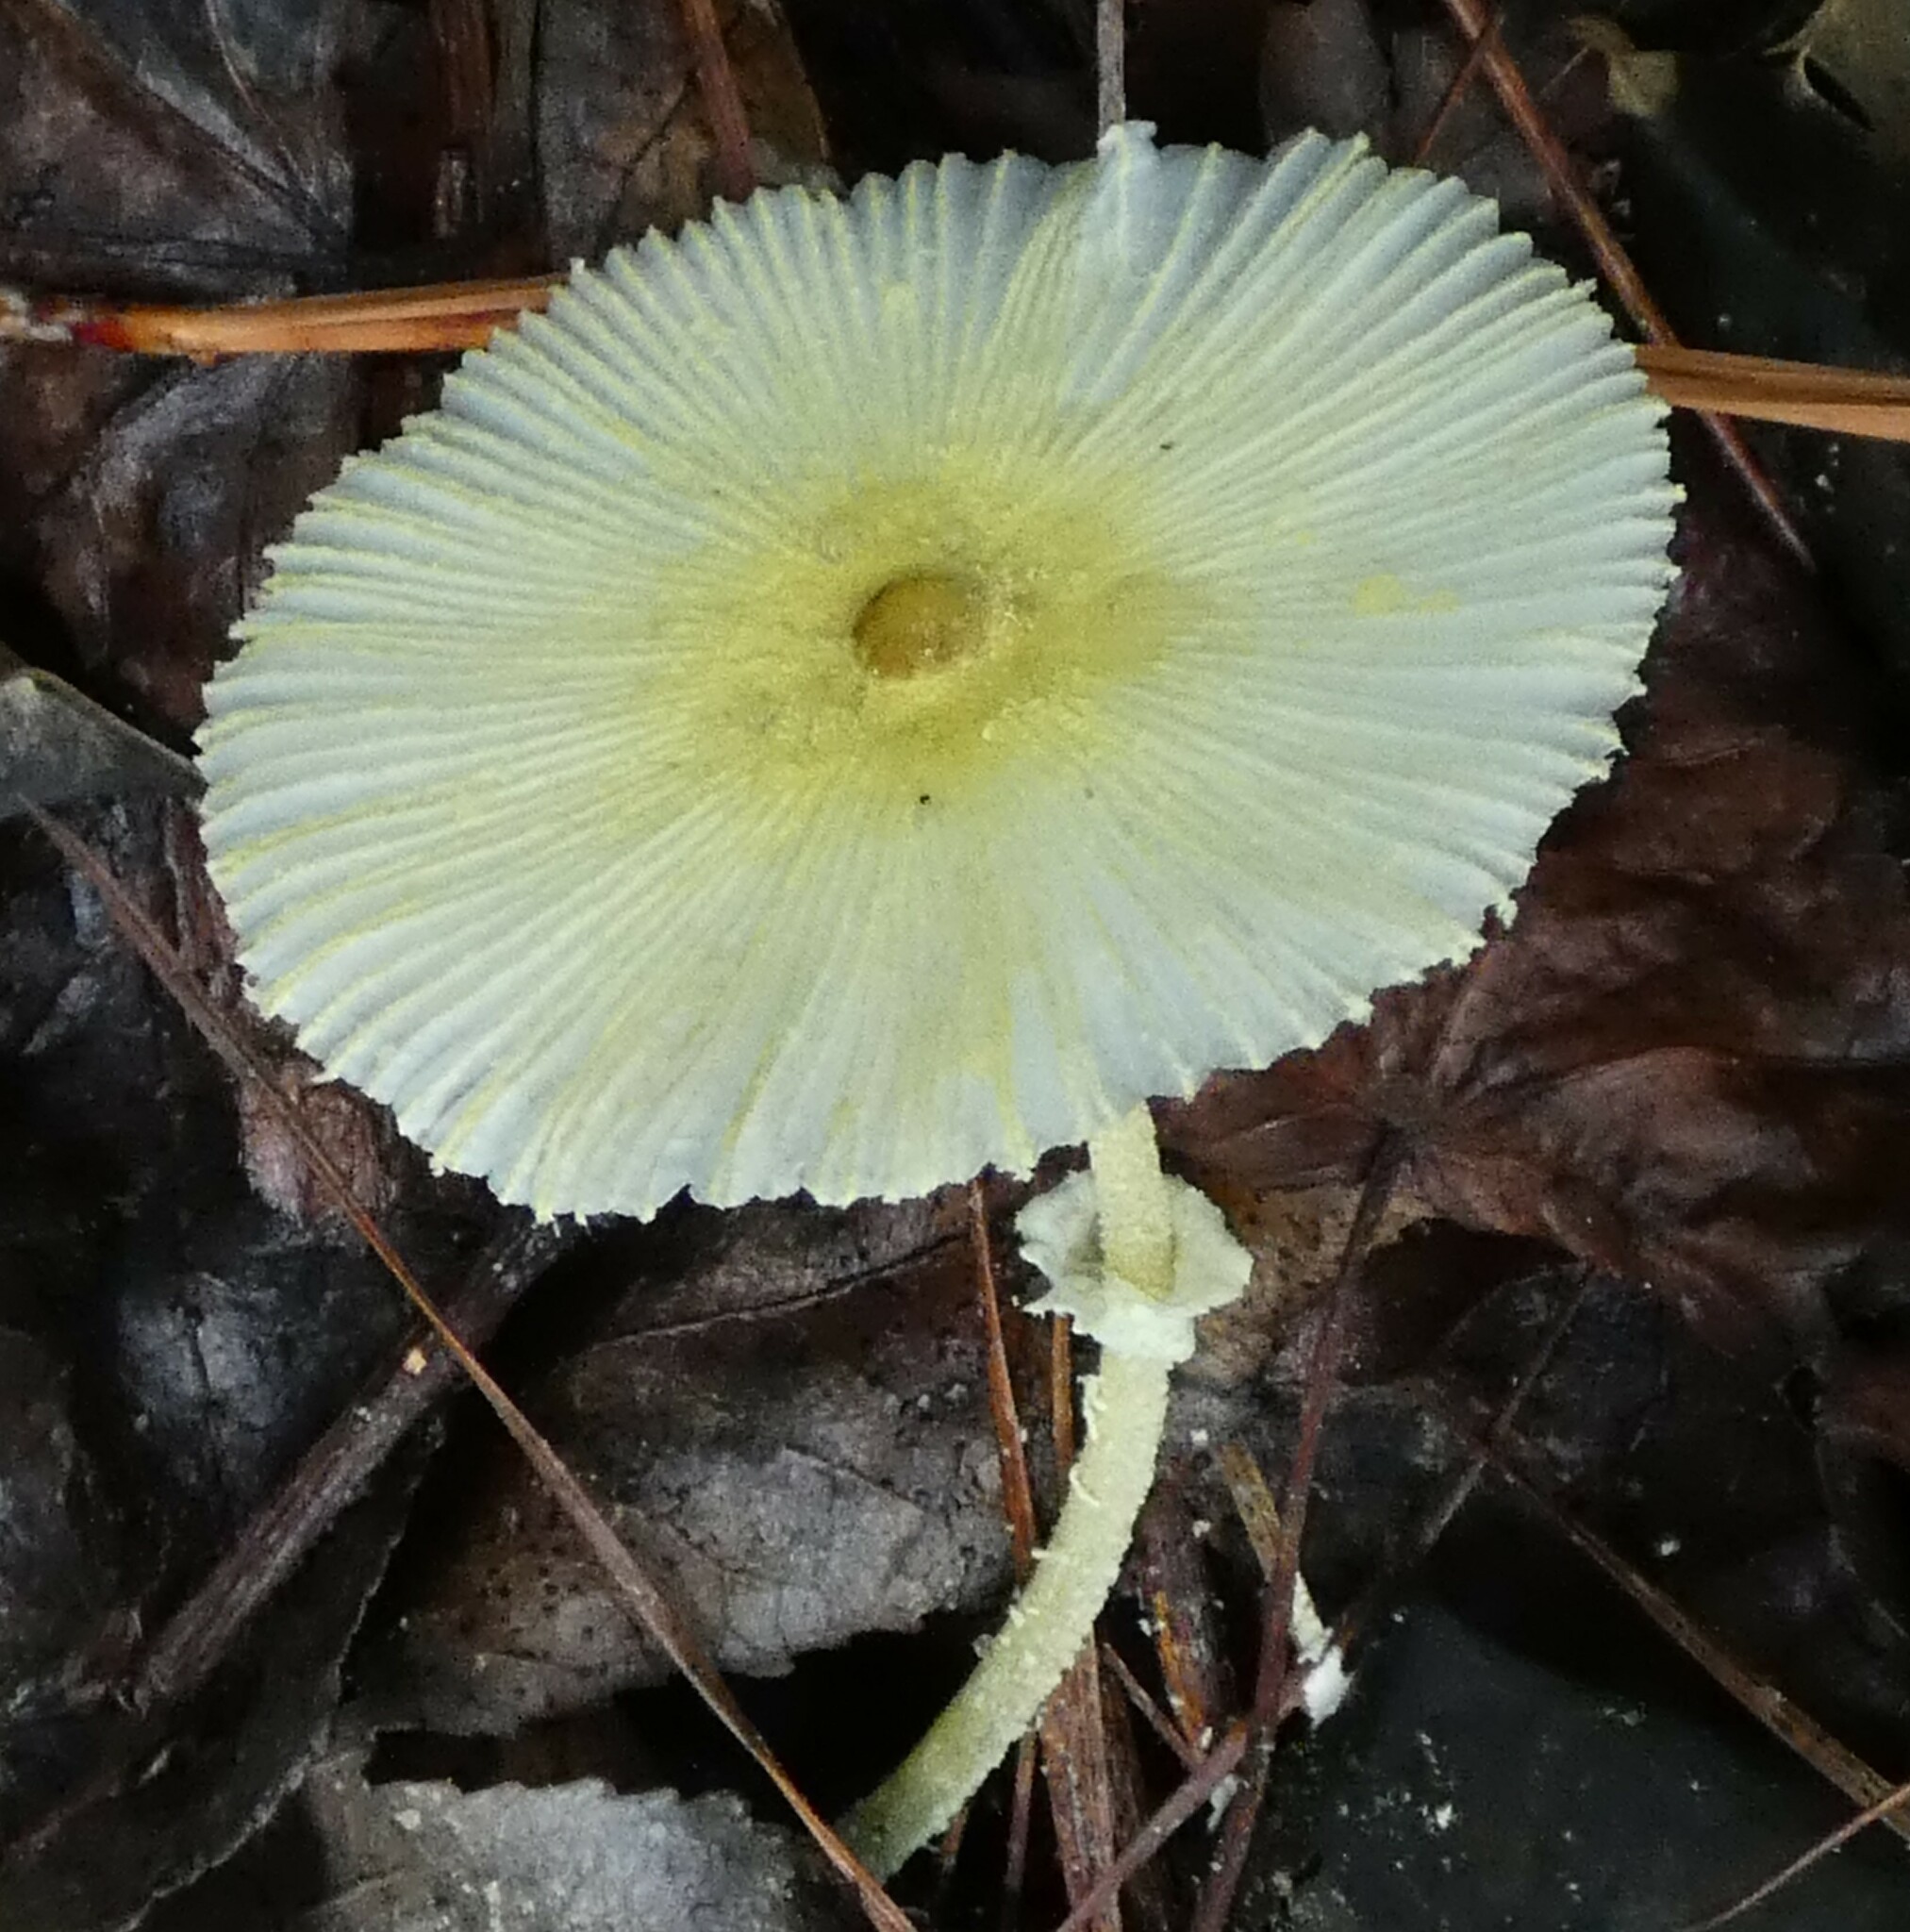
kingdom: Fungi
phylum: Basidiomycota
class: Agaricomycetes
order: Agaricales
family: Agaricaceae
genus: Leucocoprinus
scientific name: Leucocoprinus fragilissimus
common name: Fragile dapperling
